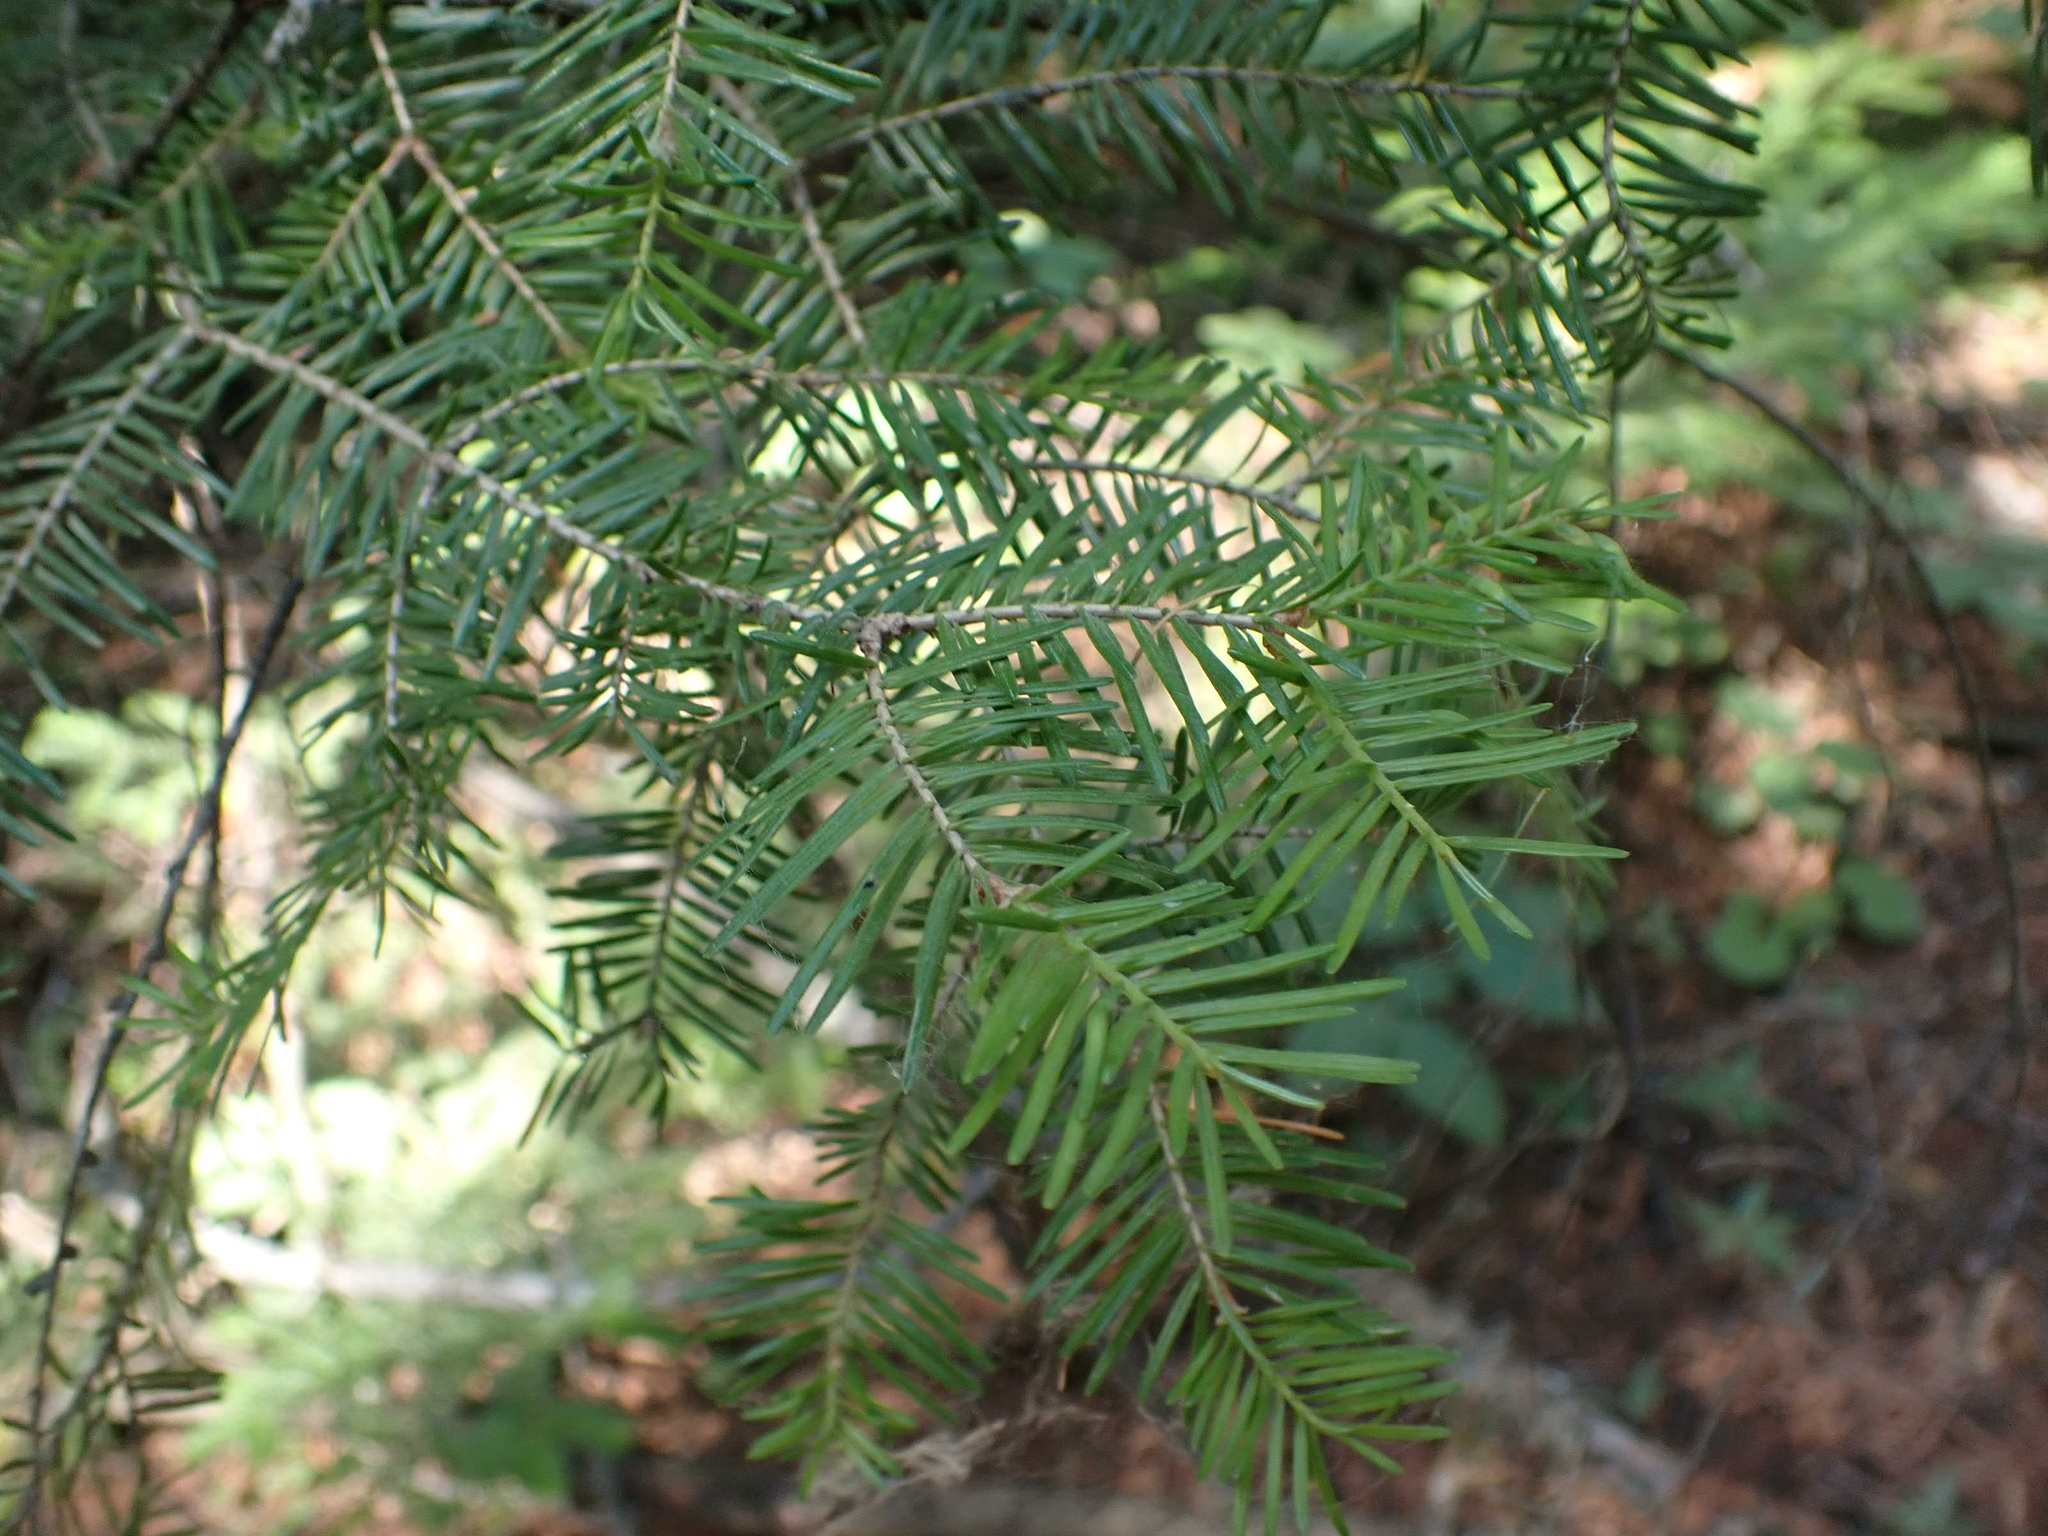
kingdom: Plantae
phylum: Tracheophyta
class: Pinopsida
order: Pinales
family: Taxaceae
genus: Taxus
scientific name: Taxus canadensis
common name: American yew
